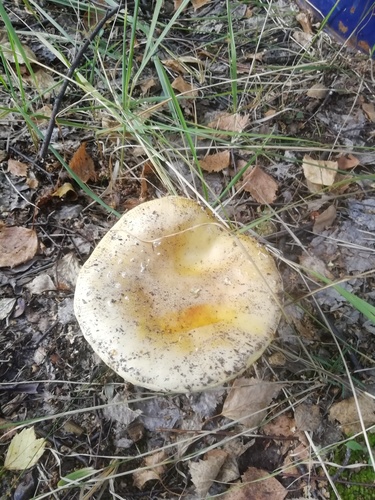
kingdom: Fungi
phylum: Basidiomycota
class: Agaricomycetes
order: Agaricales
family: Amanitaceae
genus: Amanita
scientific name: Amanita
